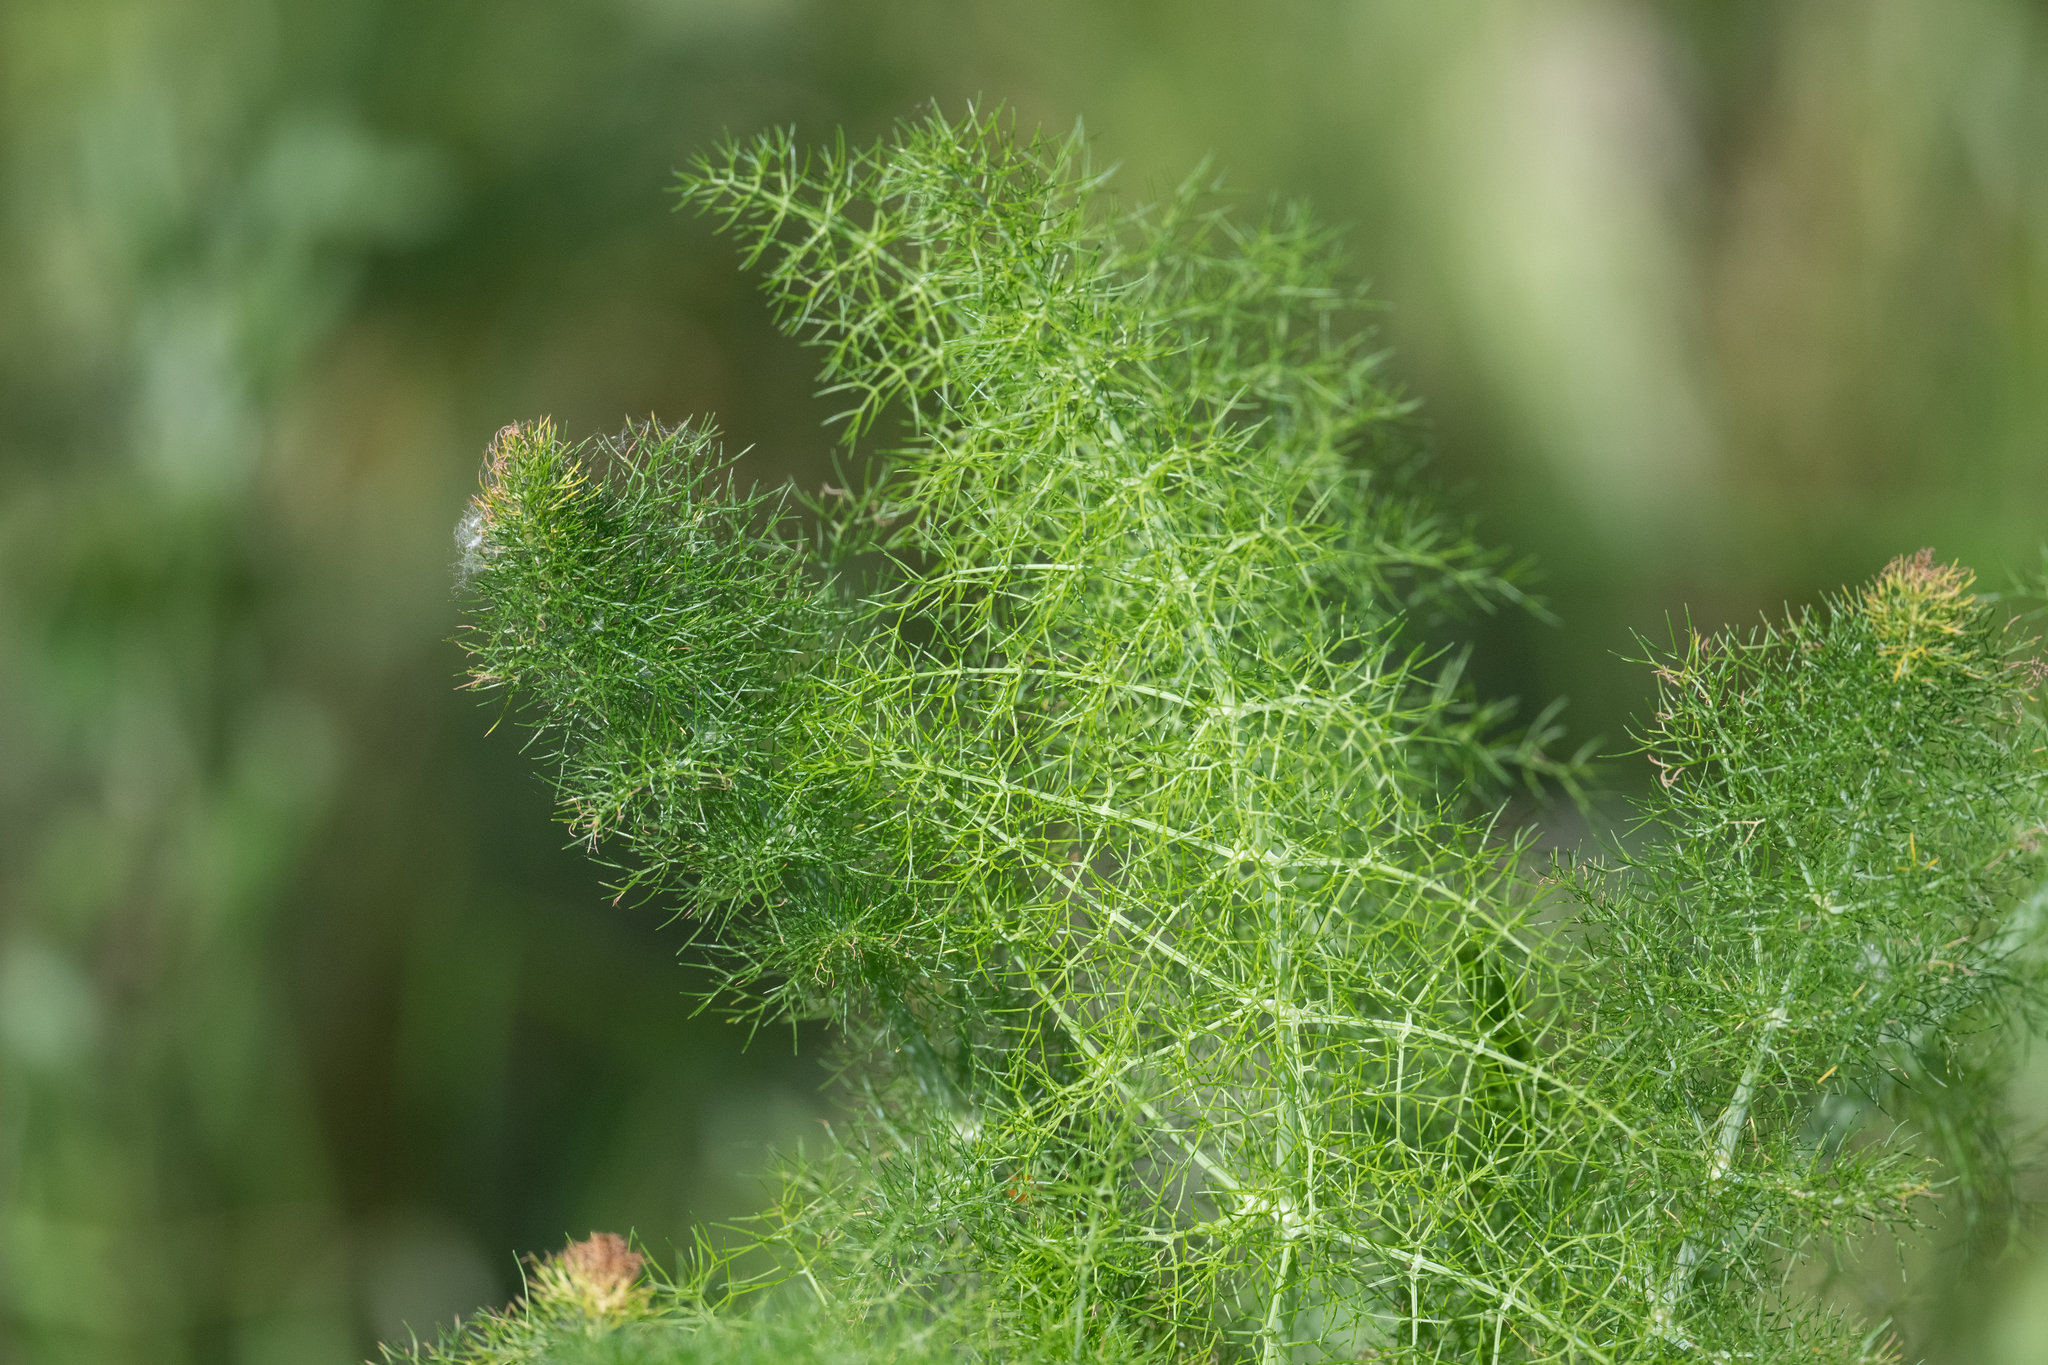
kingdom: Plantae
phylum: Tracheophyta
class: Magnoliopsida
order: Apiales
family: Apiaceae
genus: Foeniculum
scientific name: Foeniculum vulgare
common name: Fennel
